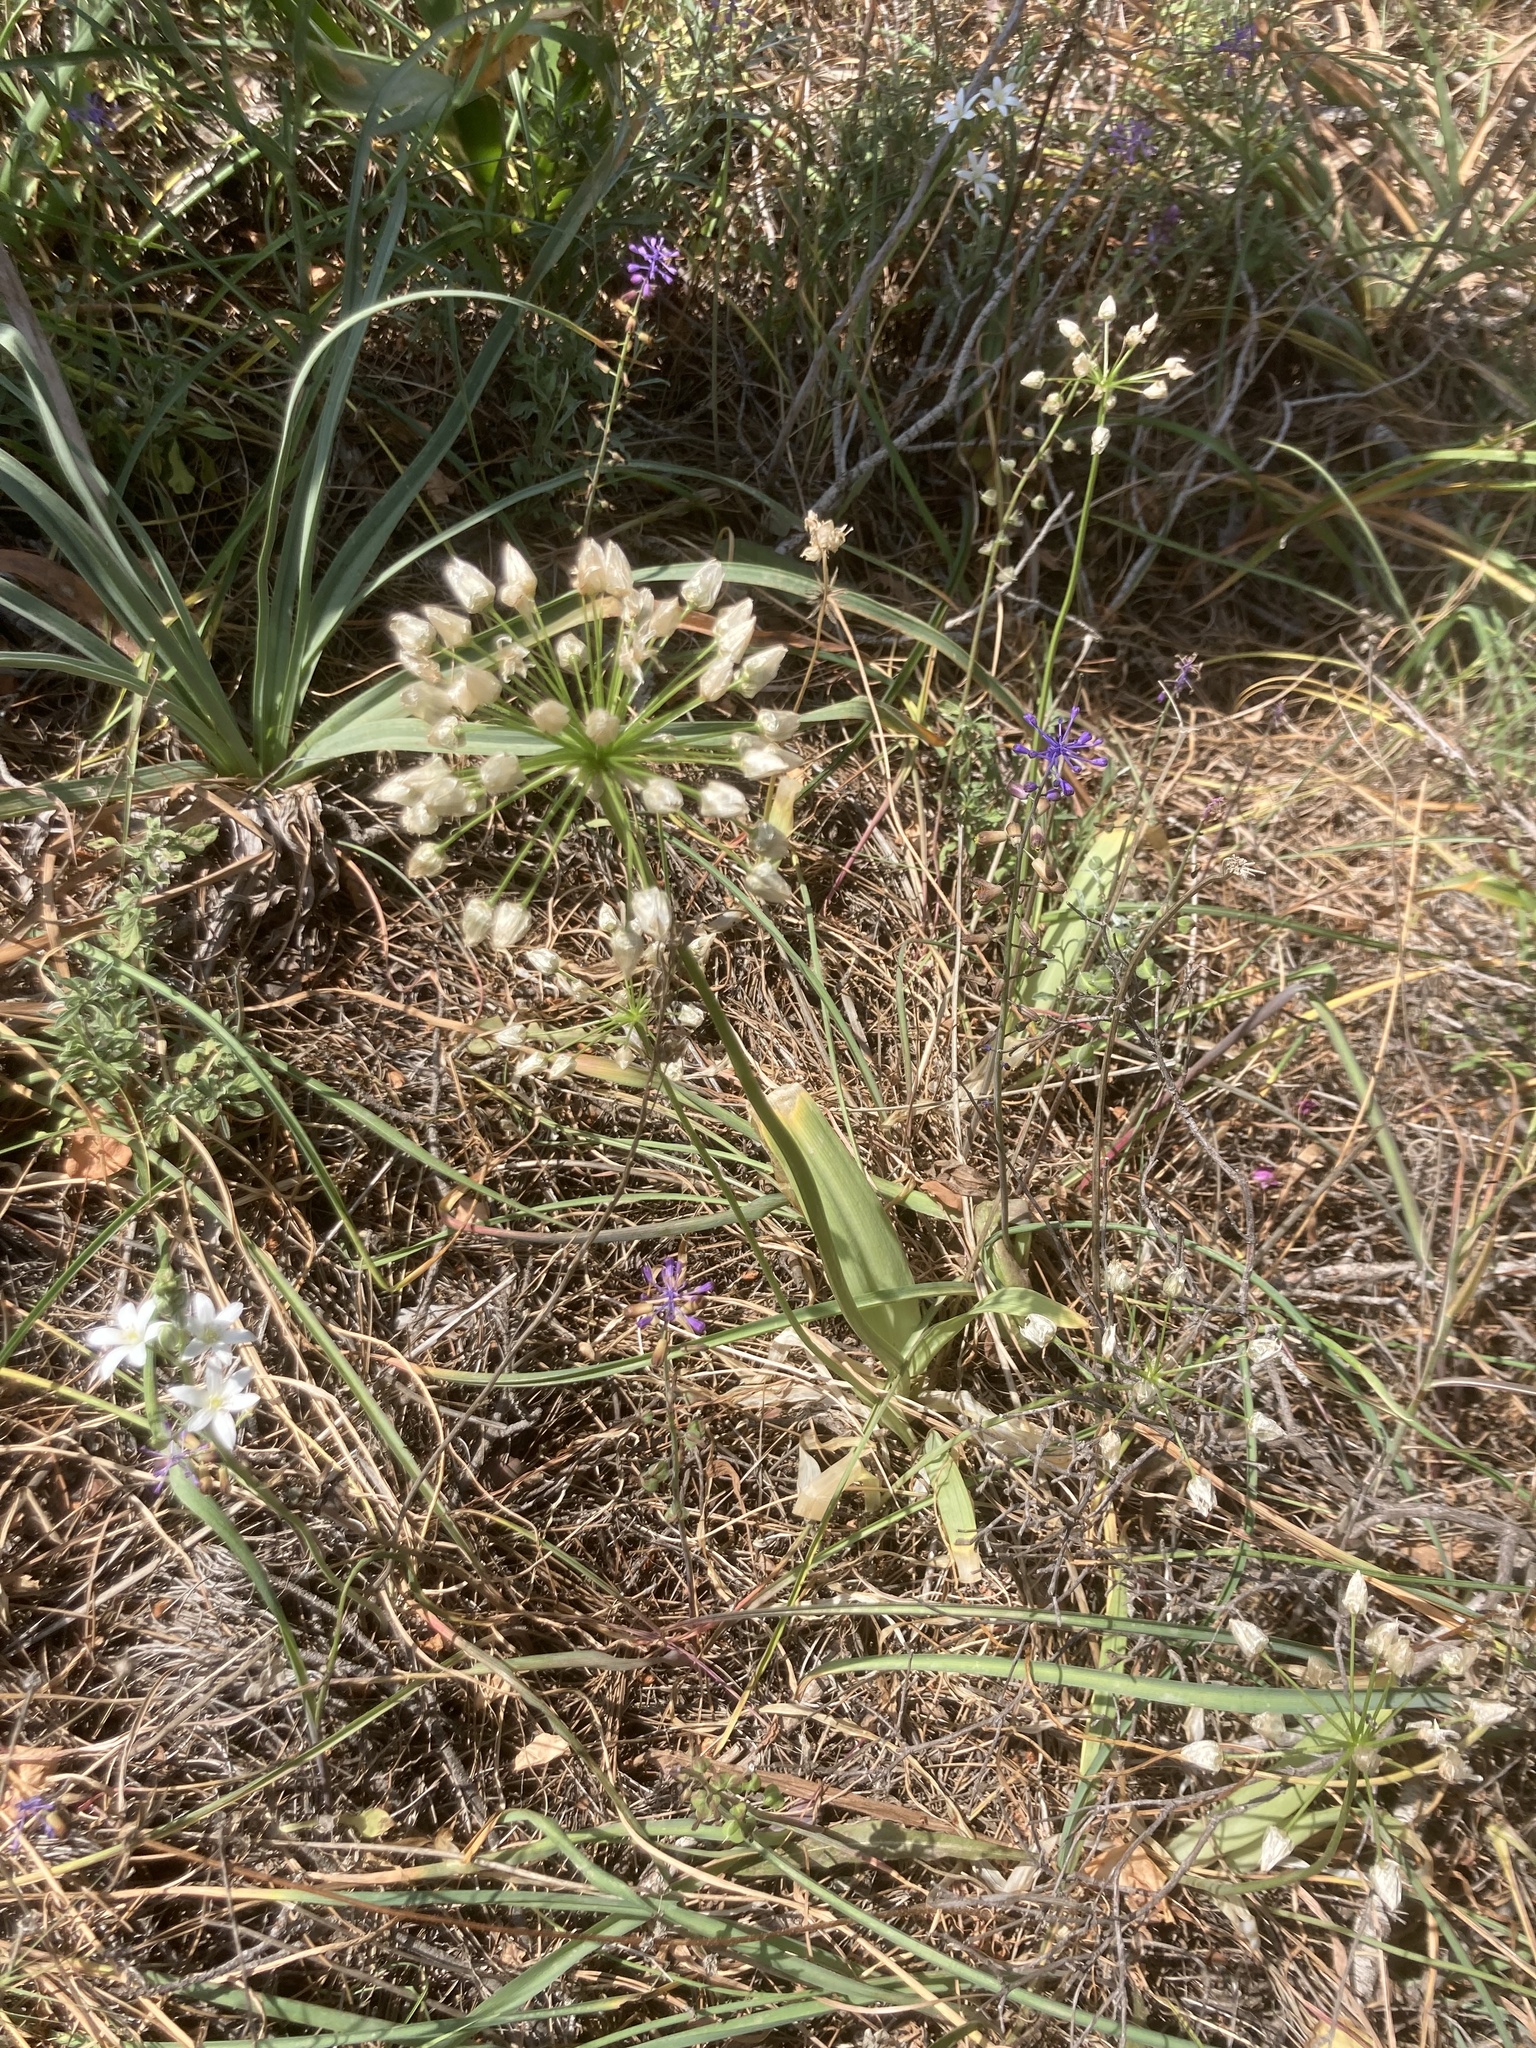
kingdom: Plantae
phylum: Tracheophyta
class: Liliopsida
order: Asparagales
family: Amaryllidaceae
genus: Allium
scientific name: Allium
